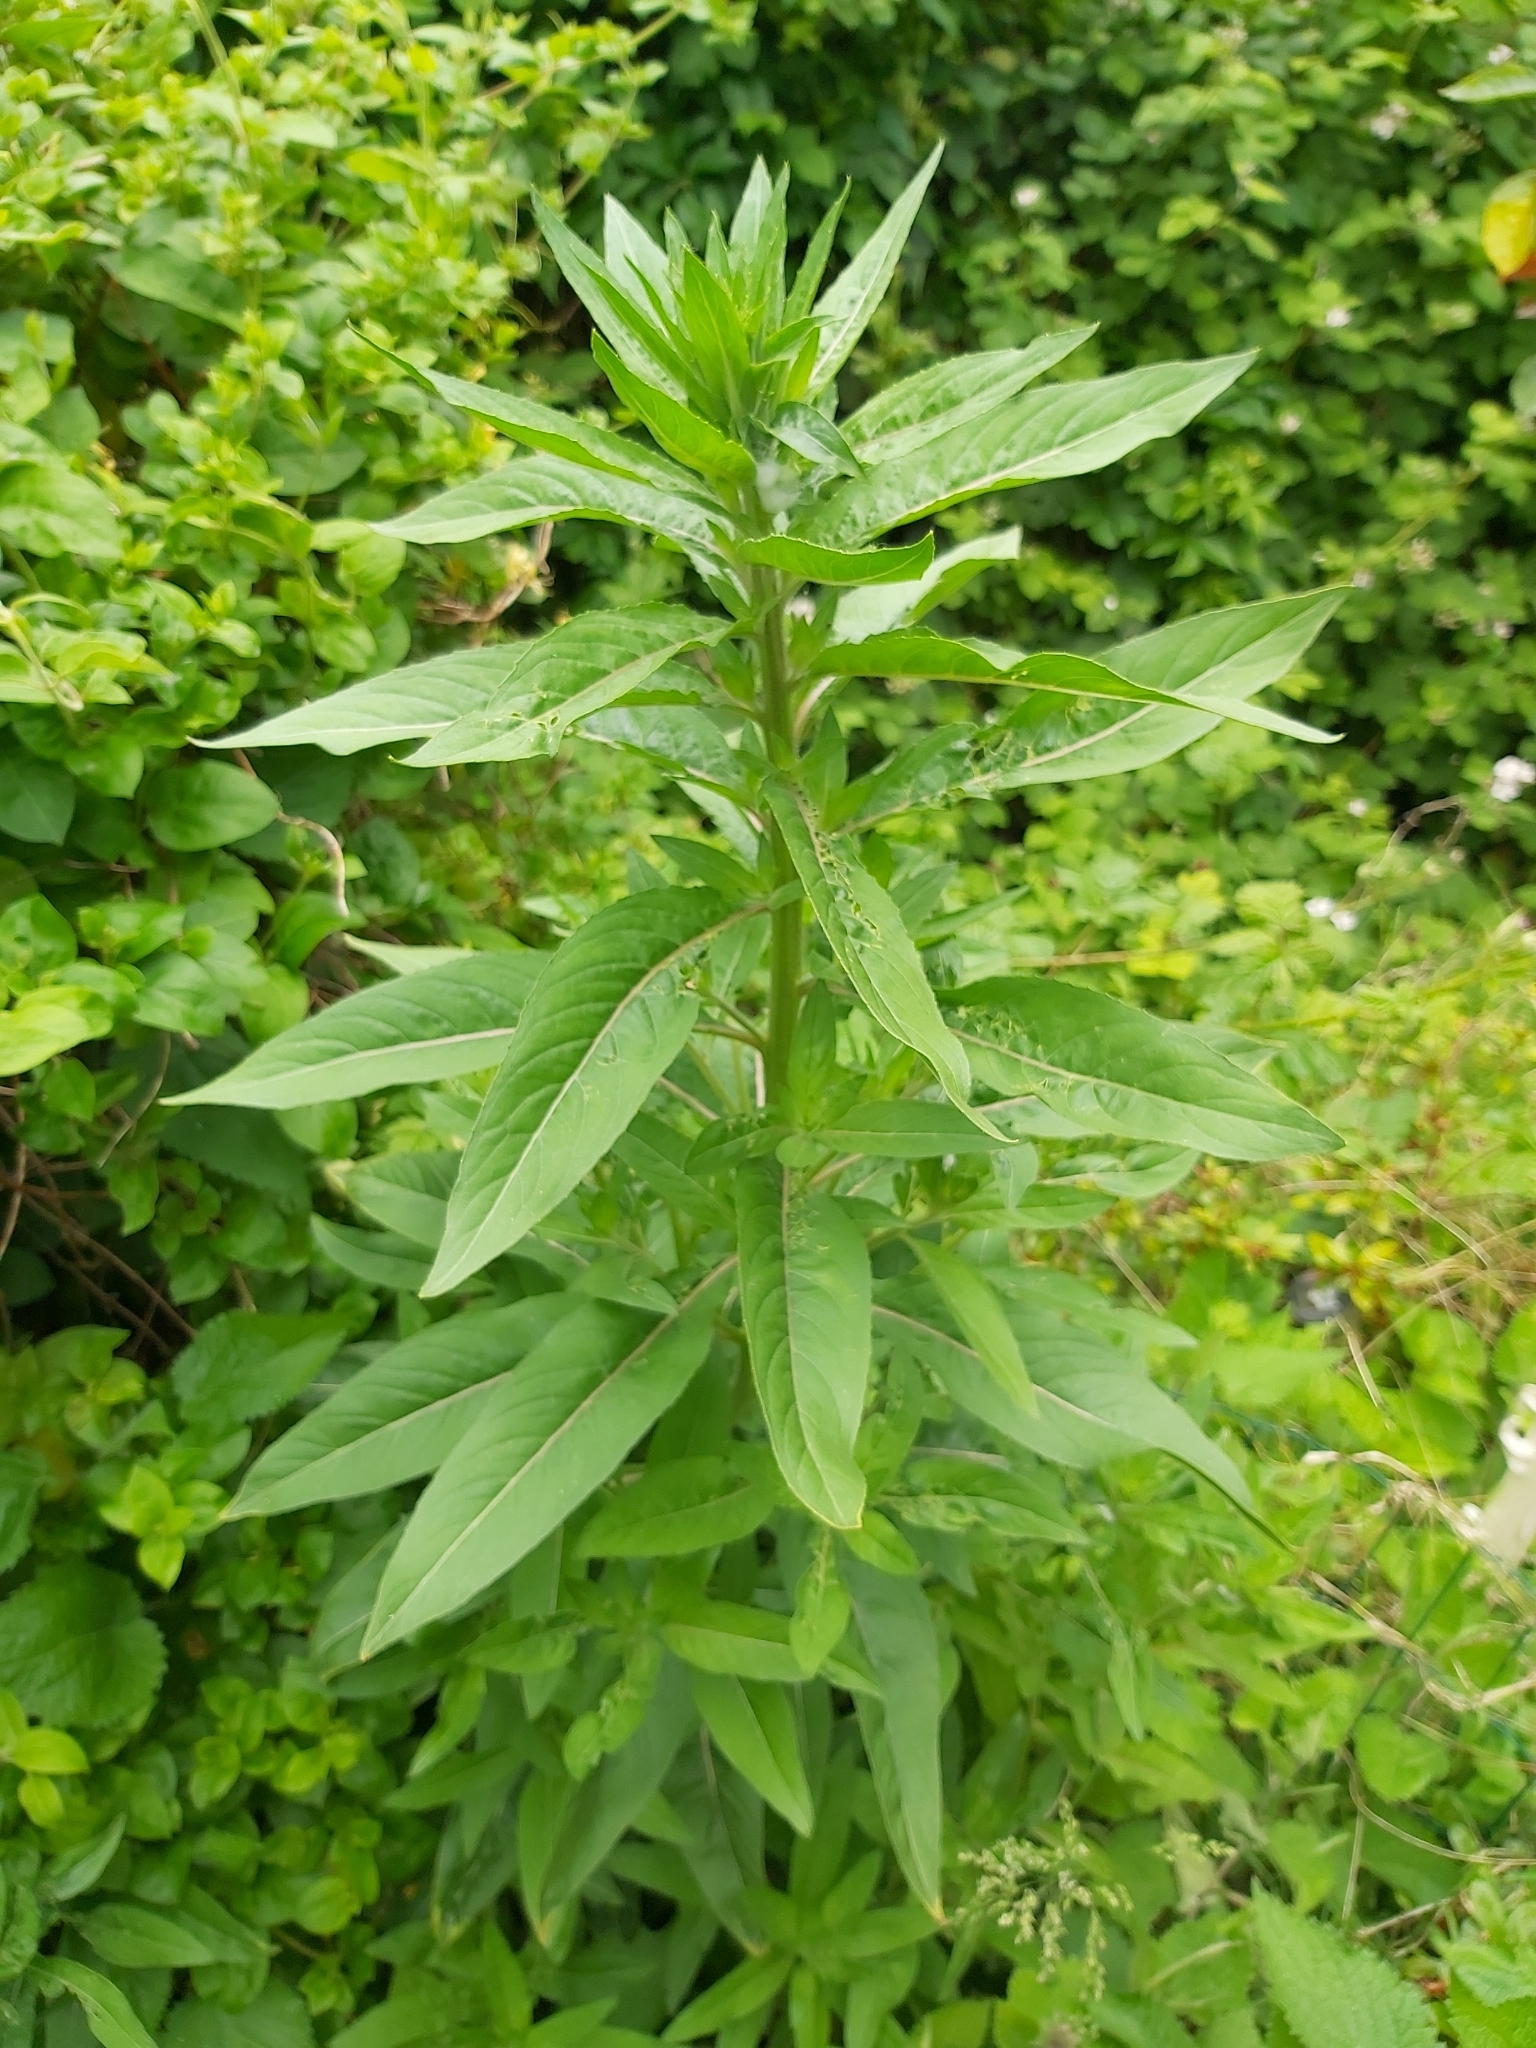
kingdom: Plantae
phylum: Tracheophyta
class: Magnoliopsida
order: Myrtales
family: Onagraceae
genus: Chamaenerion
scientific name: Chamaenerion angustifolium
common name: Fireweed
